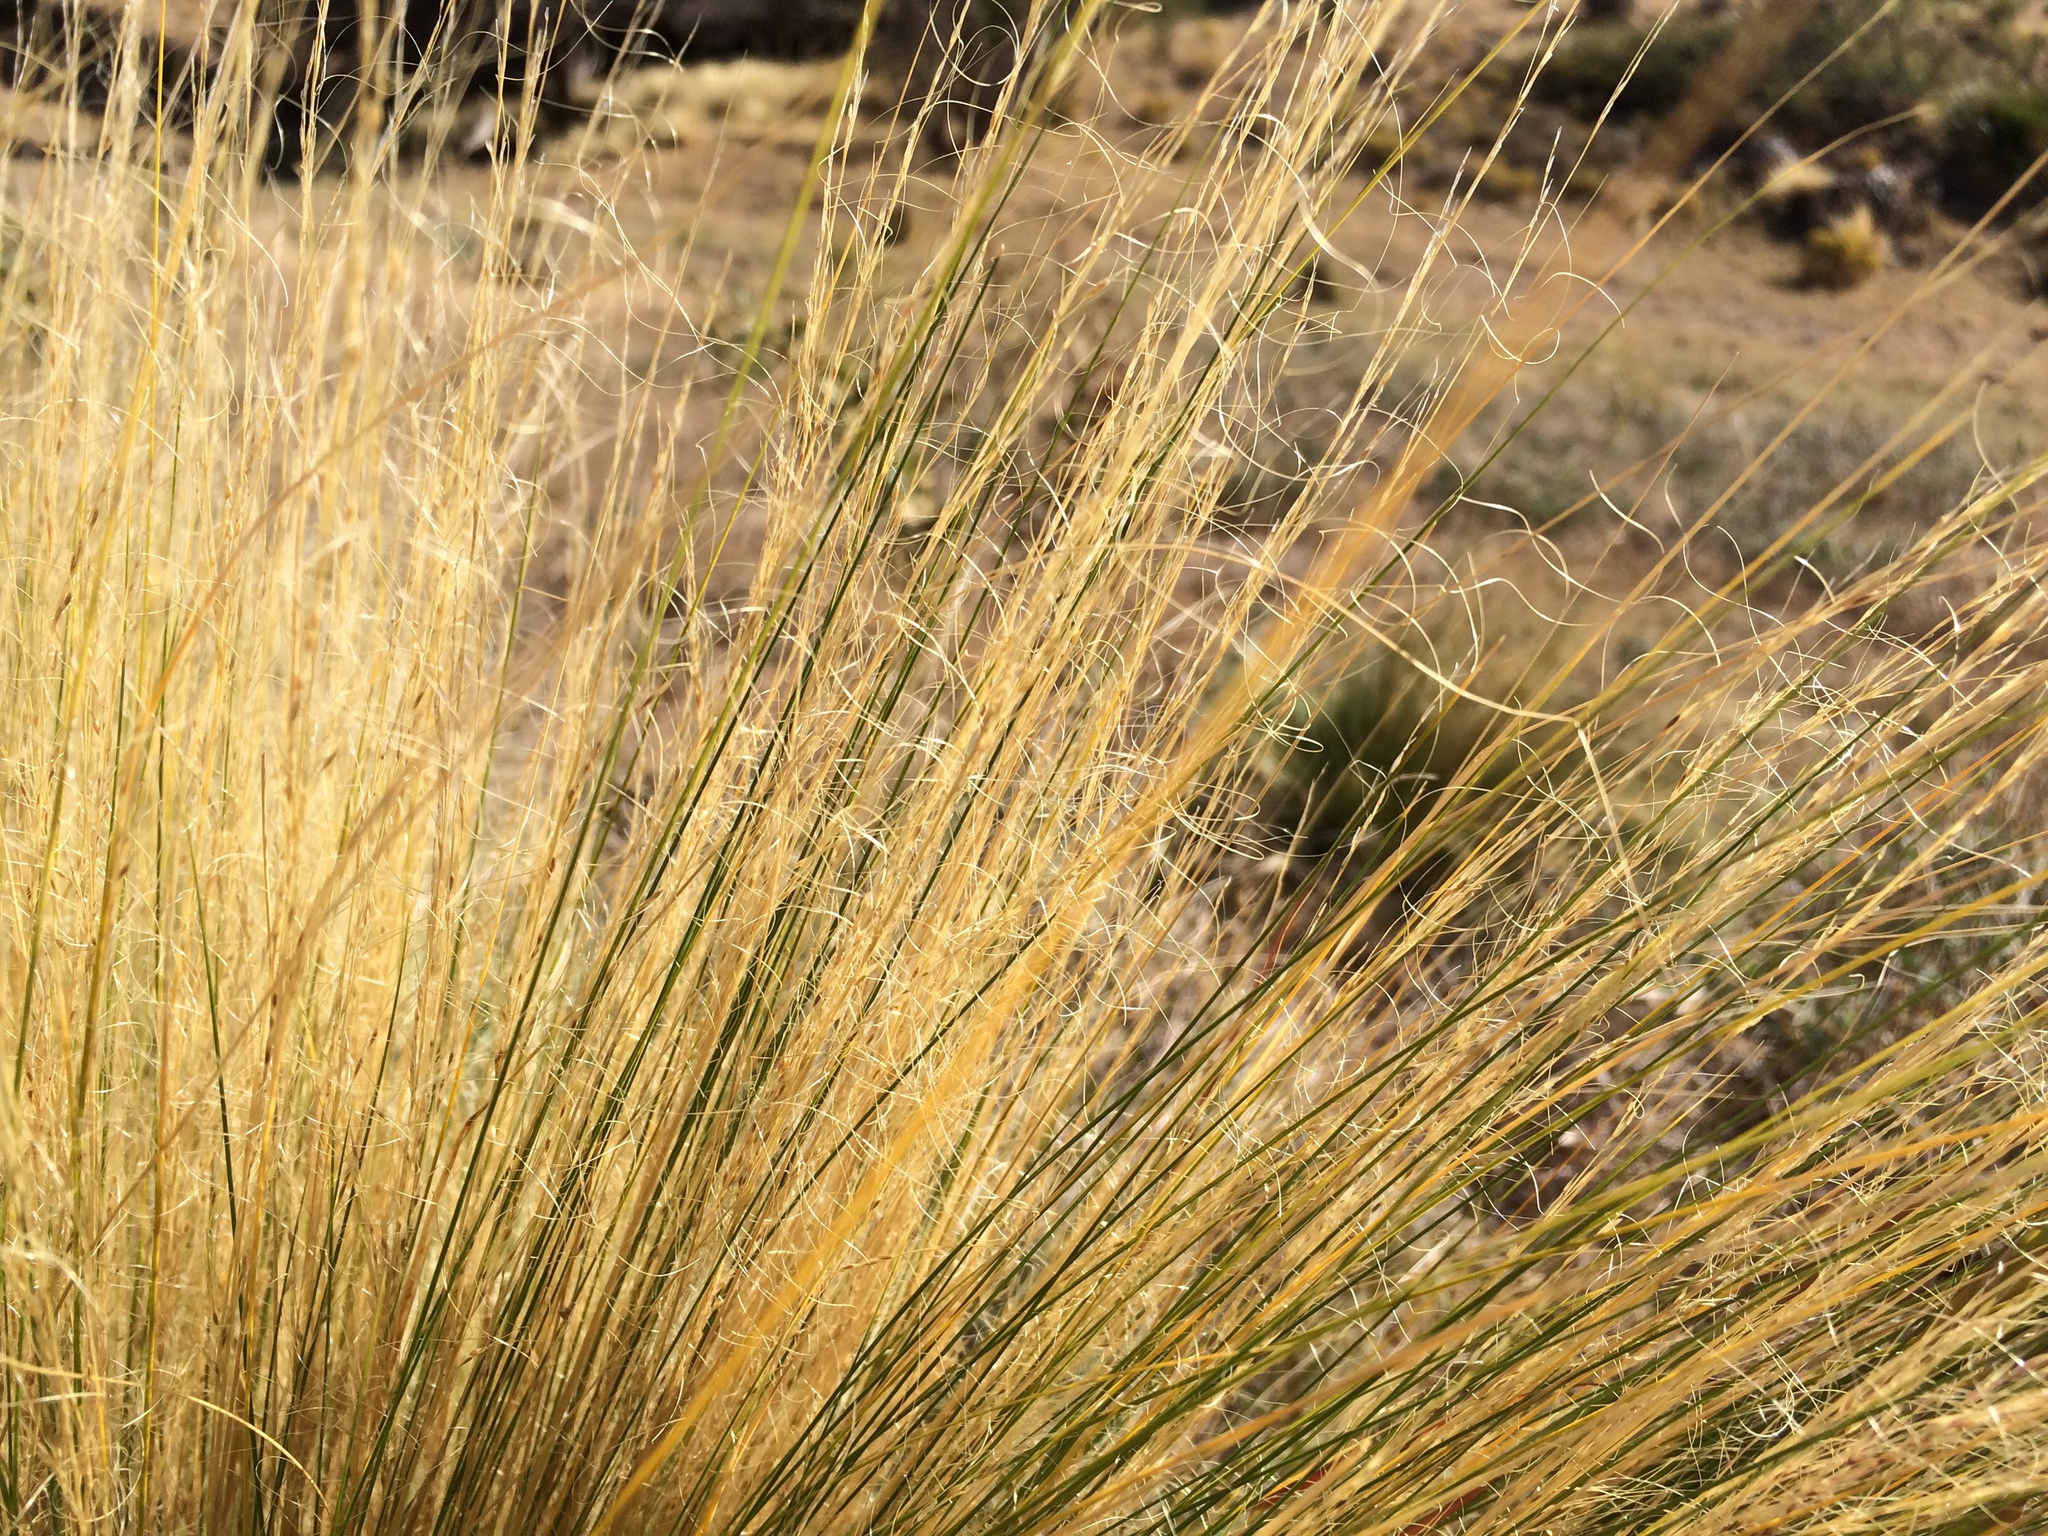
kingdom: Plantae
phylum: Tracheophyta
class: Liliopsida
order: Poales
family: Poaceae
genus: Nassella
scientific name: Nassella tenuissima
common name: Argentine needlegrass
